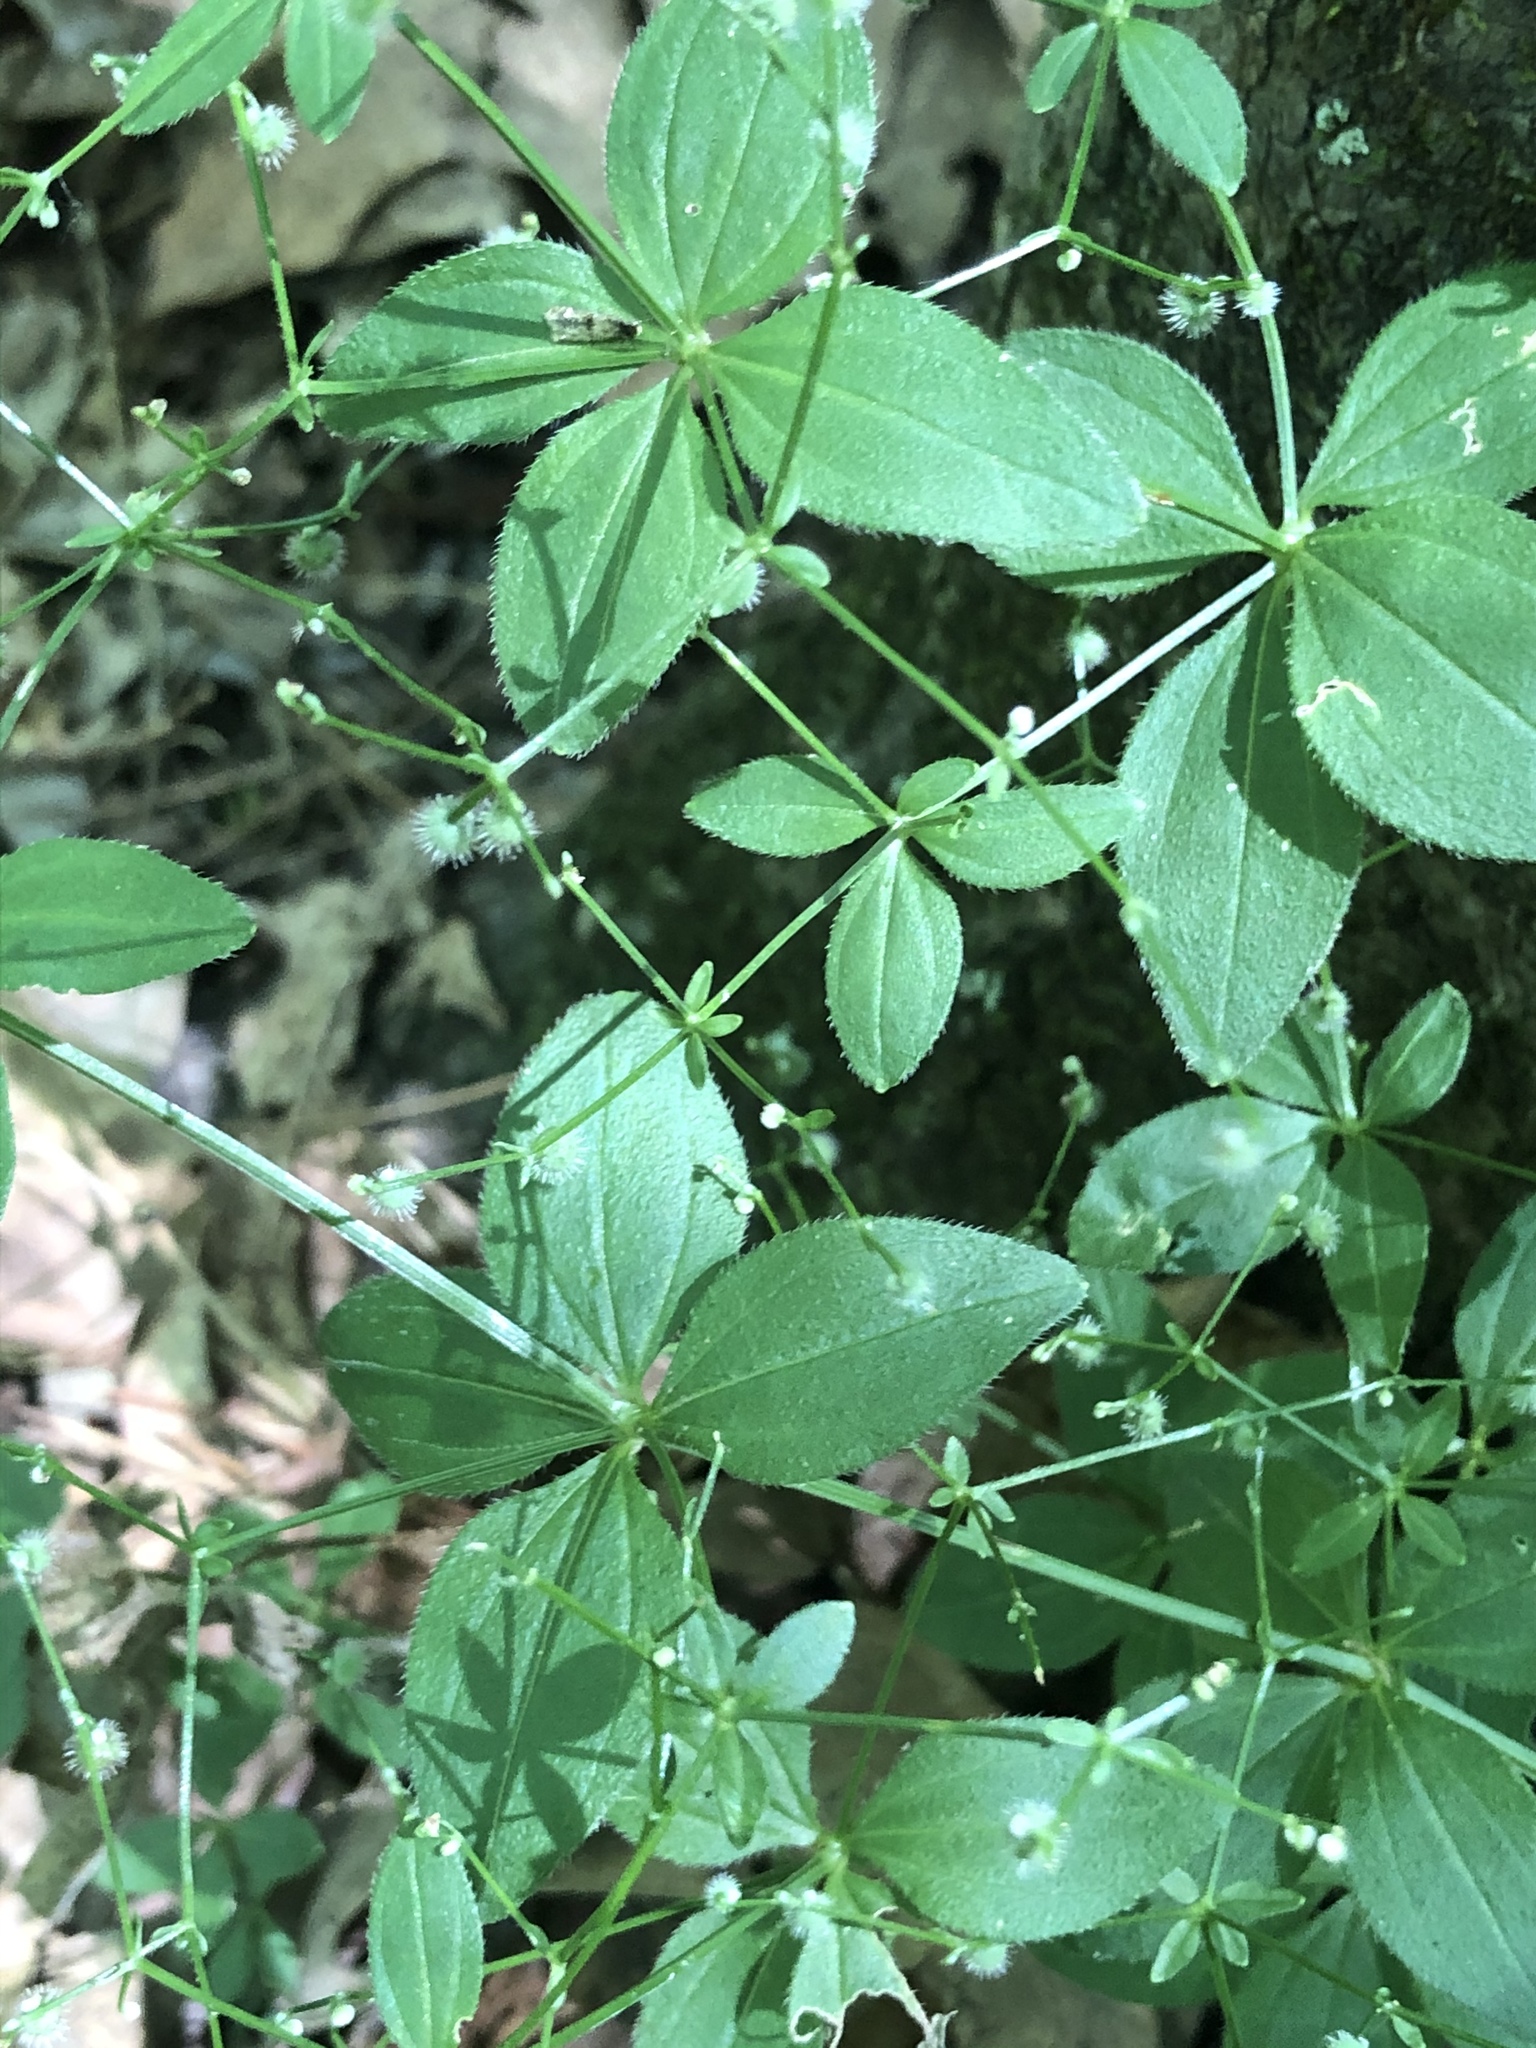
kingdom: Plantae
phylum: Tracheophyta
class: Magnoliopsida
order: Gentianales
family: Rubiaceae
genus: Galium
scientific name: Galium circaezans
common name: Forest bedstraw
